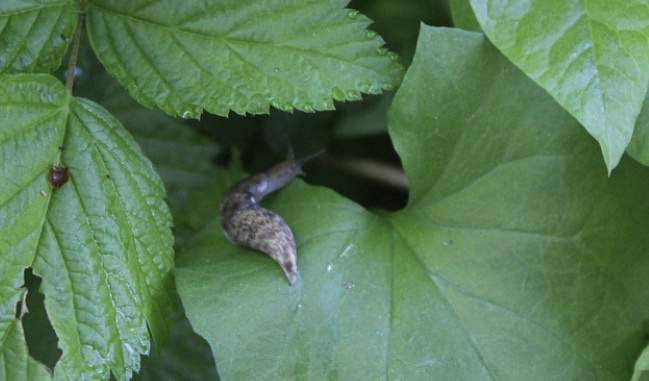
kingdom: Animalia
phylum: Mollusca
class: Gastropoda
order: Stylommatophora
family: Agriolimacidae
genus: Deroceras
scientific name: Deroceras reticulatum
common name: Gray field slug
